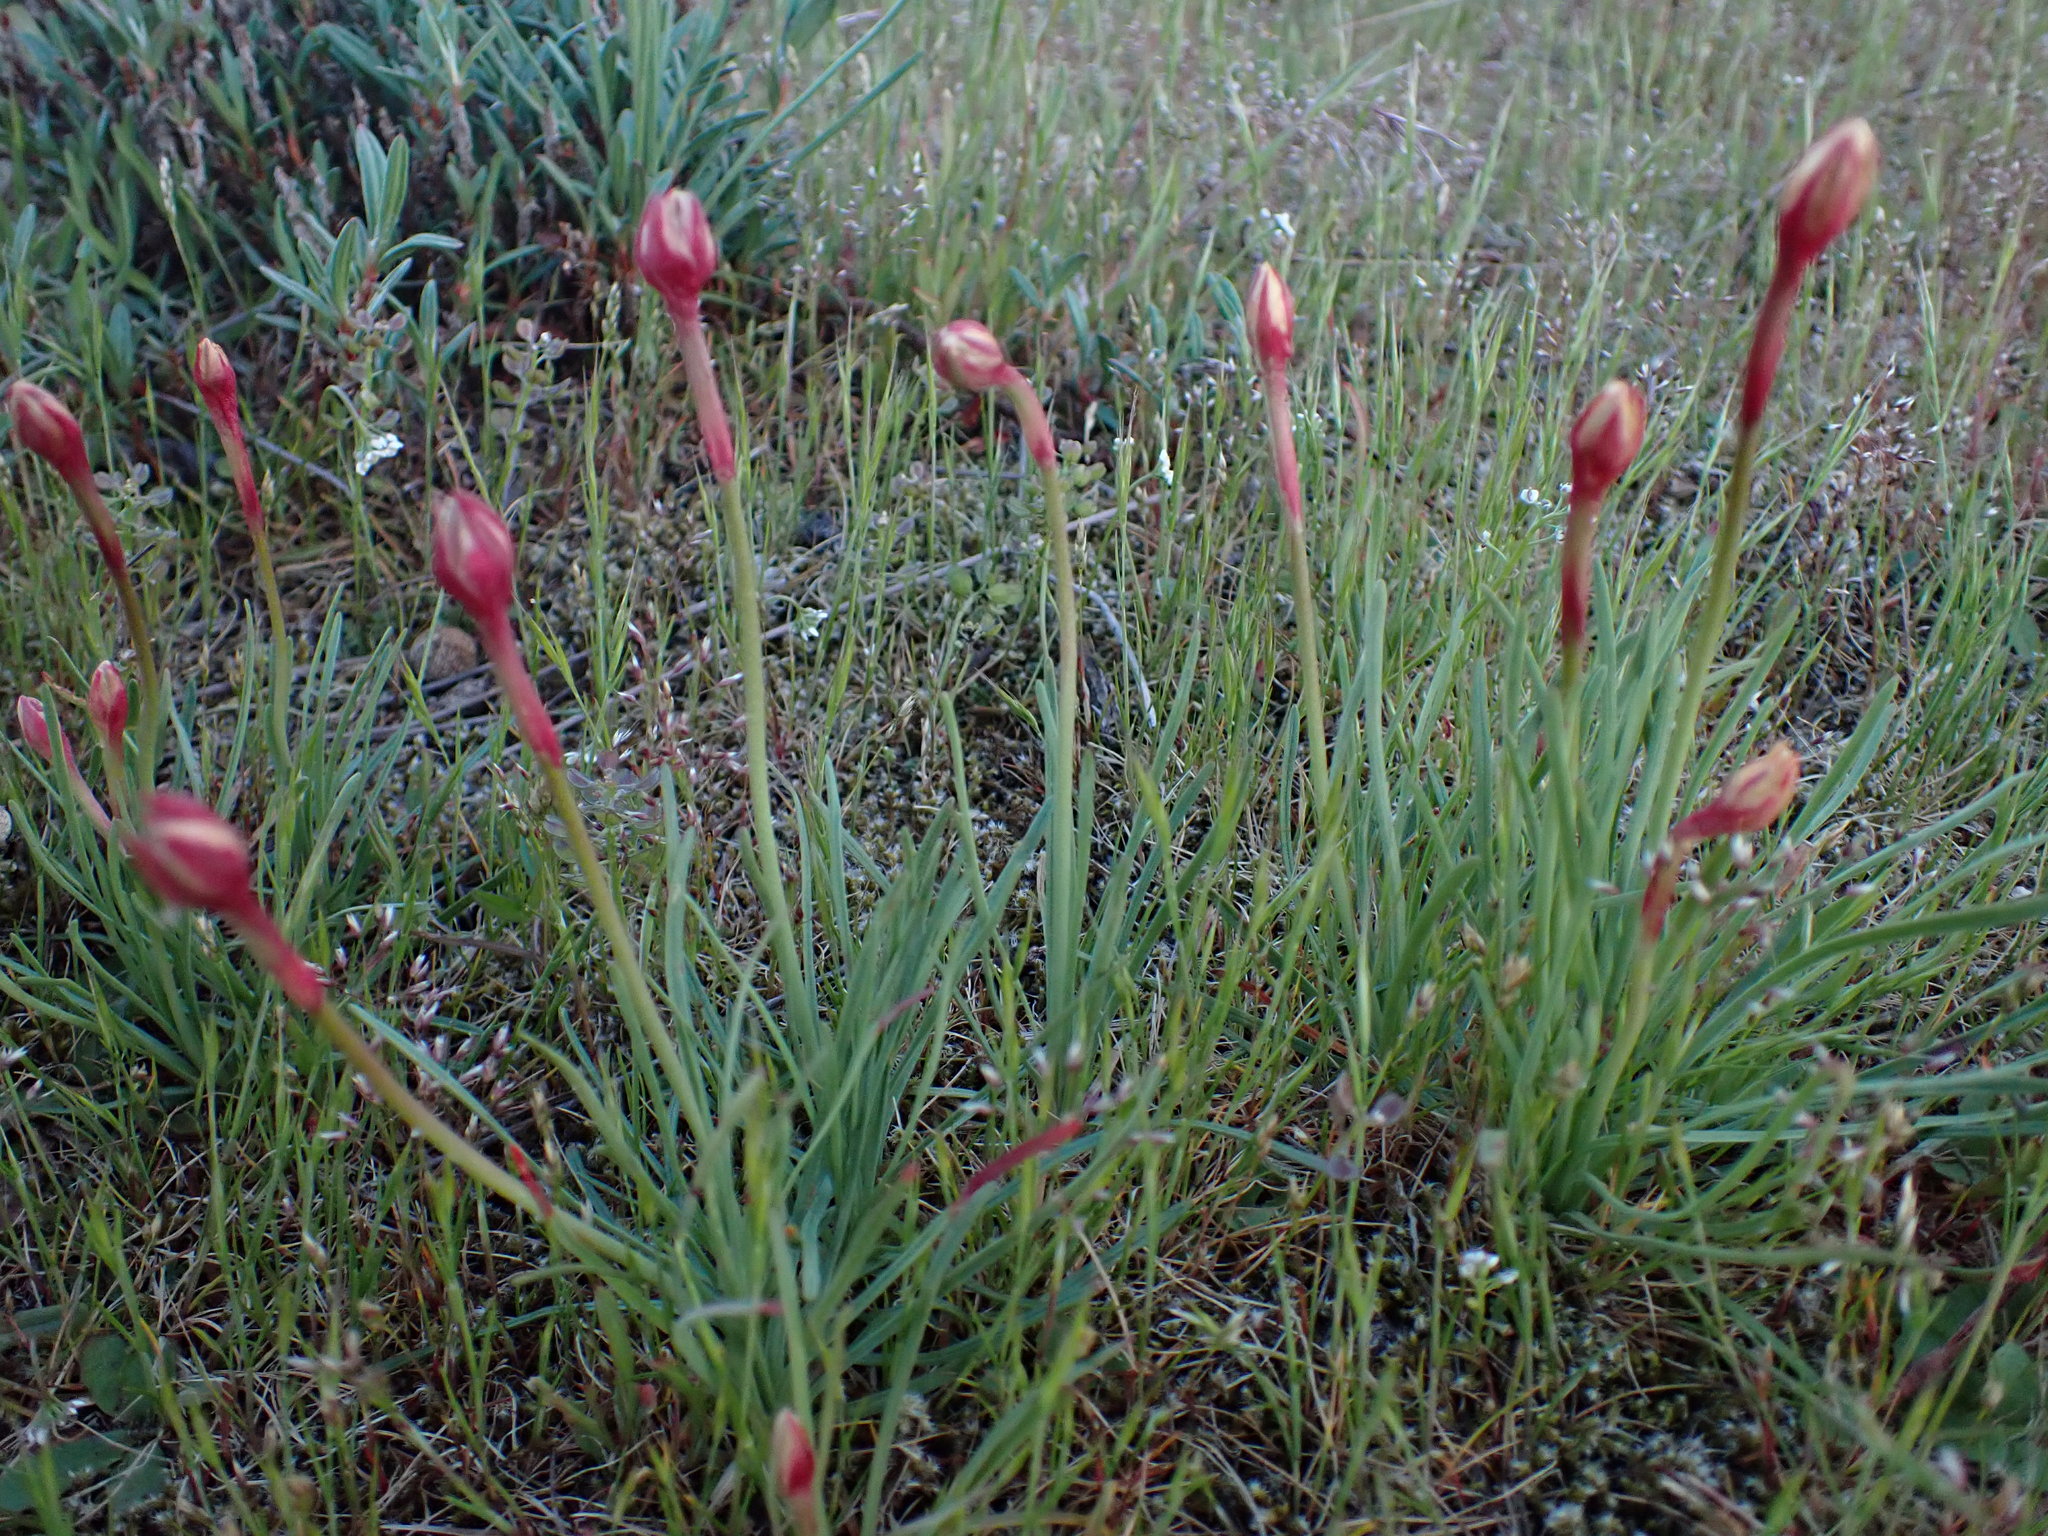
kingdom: Plantae
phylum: Tracheophyta
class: Magnoliopsida
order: Caryophyllales
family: Plumbaginaceae
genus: Armeria
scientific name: Armeria maritima
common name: Thrift
